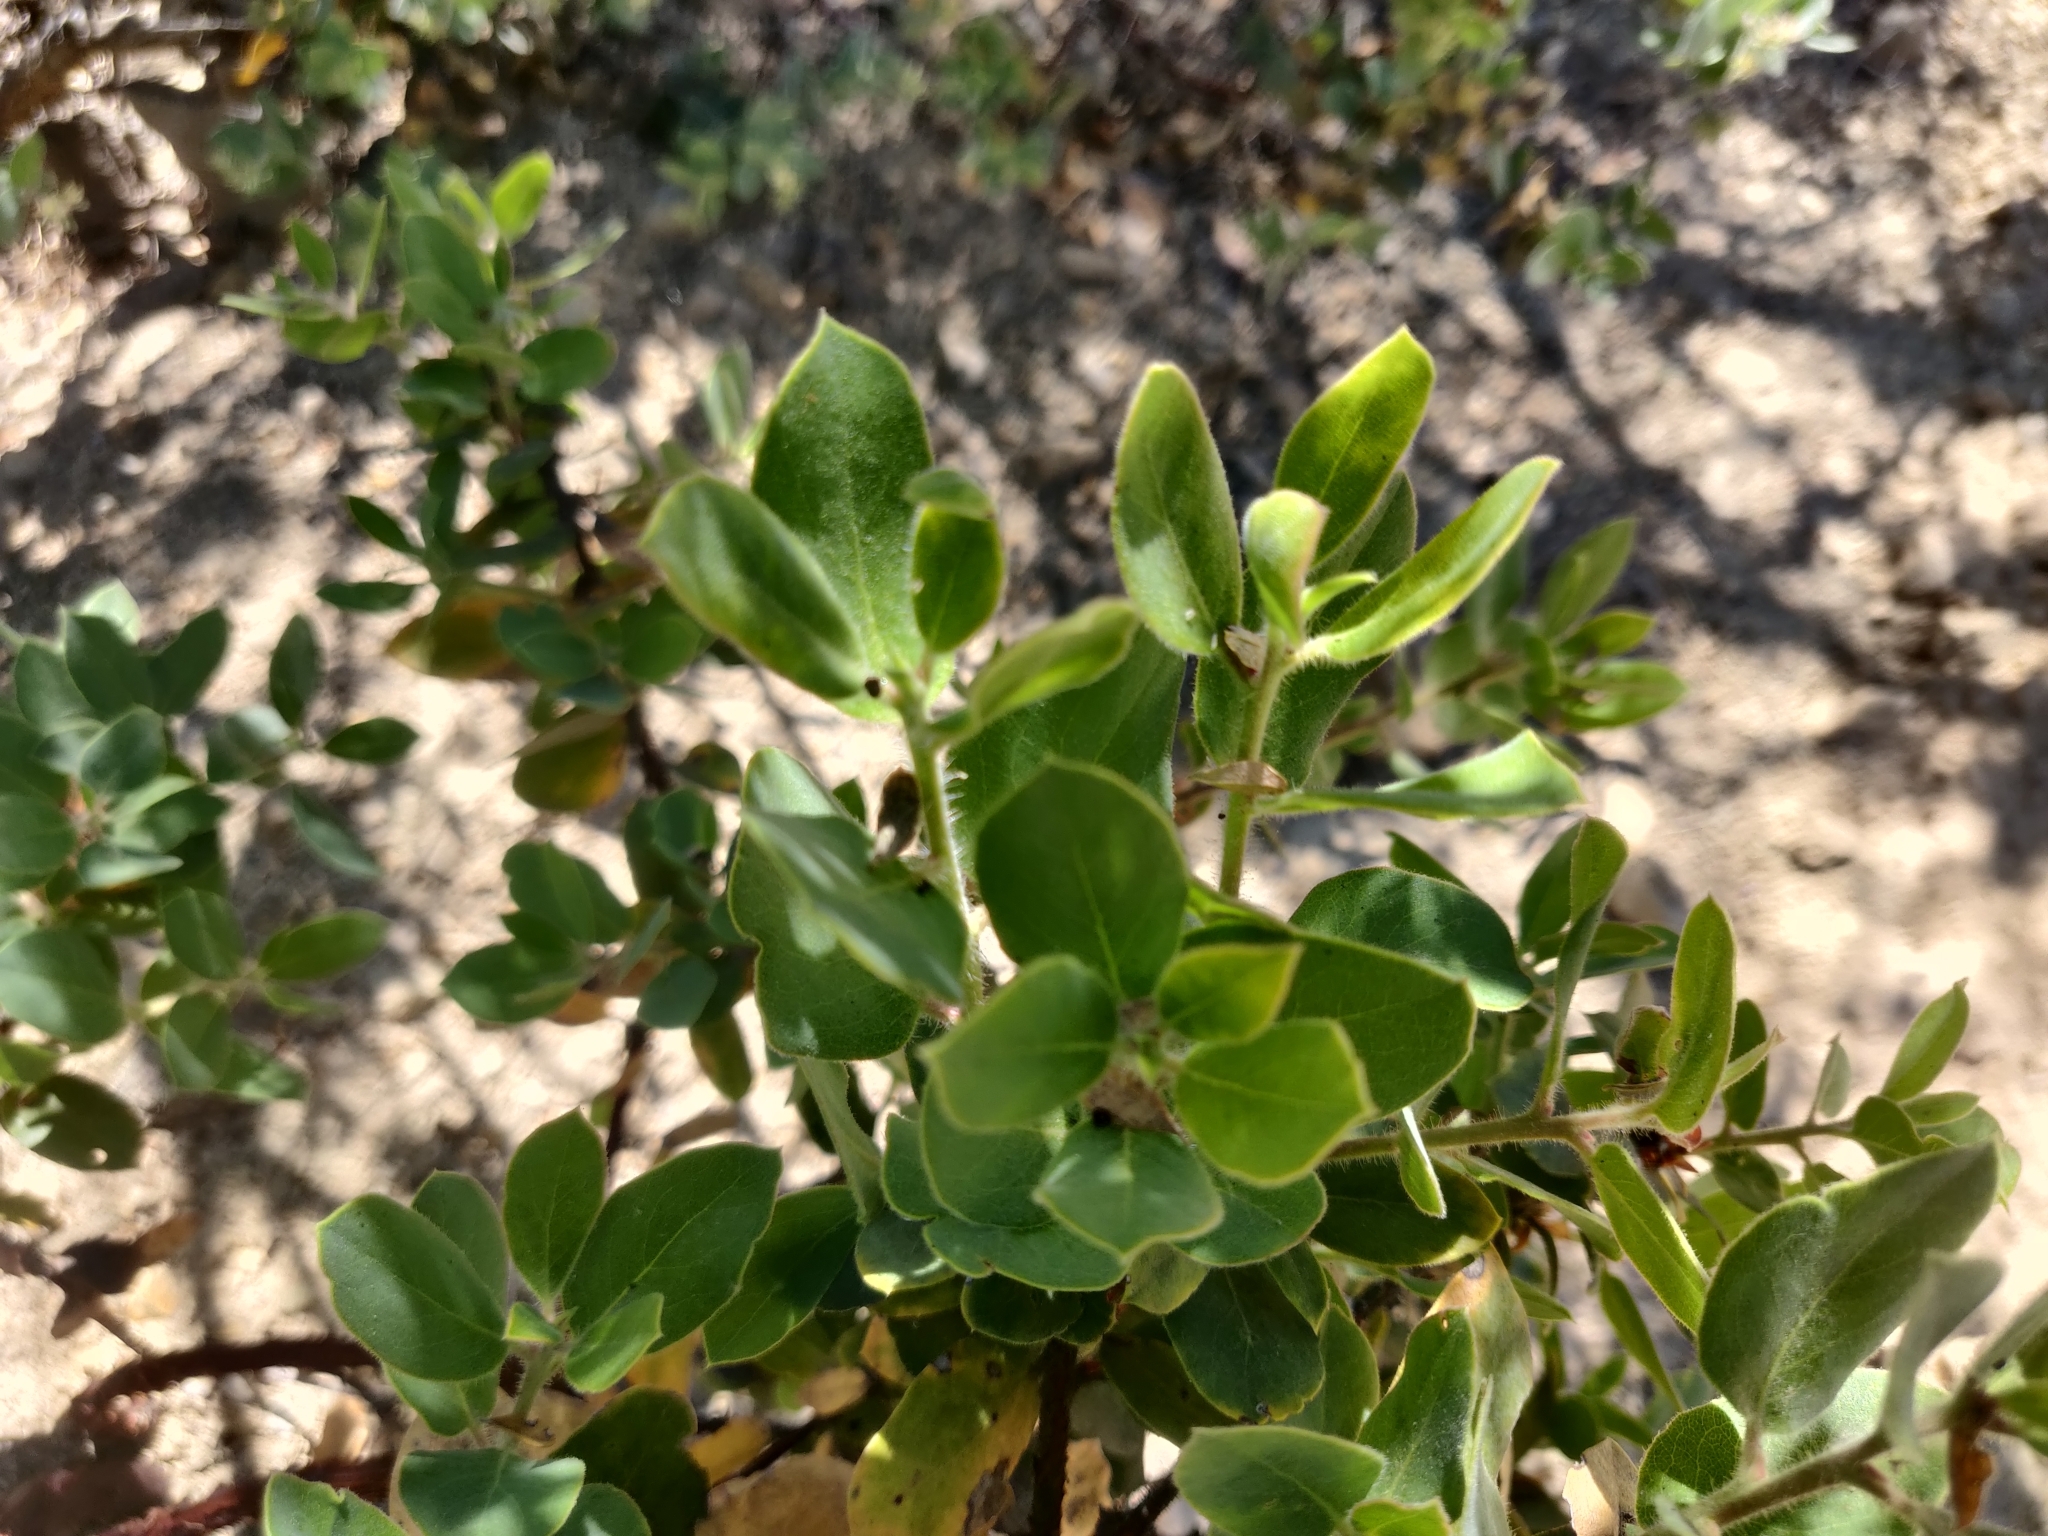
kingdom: Plantae
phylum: Tracheophyta
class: Magnoliopsida
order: Ericales
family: Ericaceae
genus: Arctostaphylos
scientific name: Arctostaphylos glandulosa
